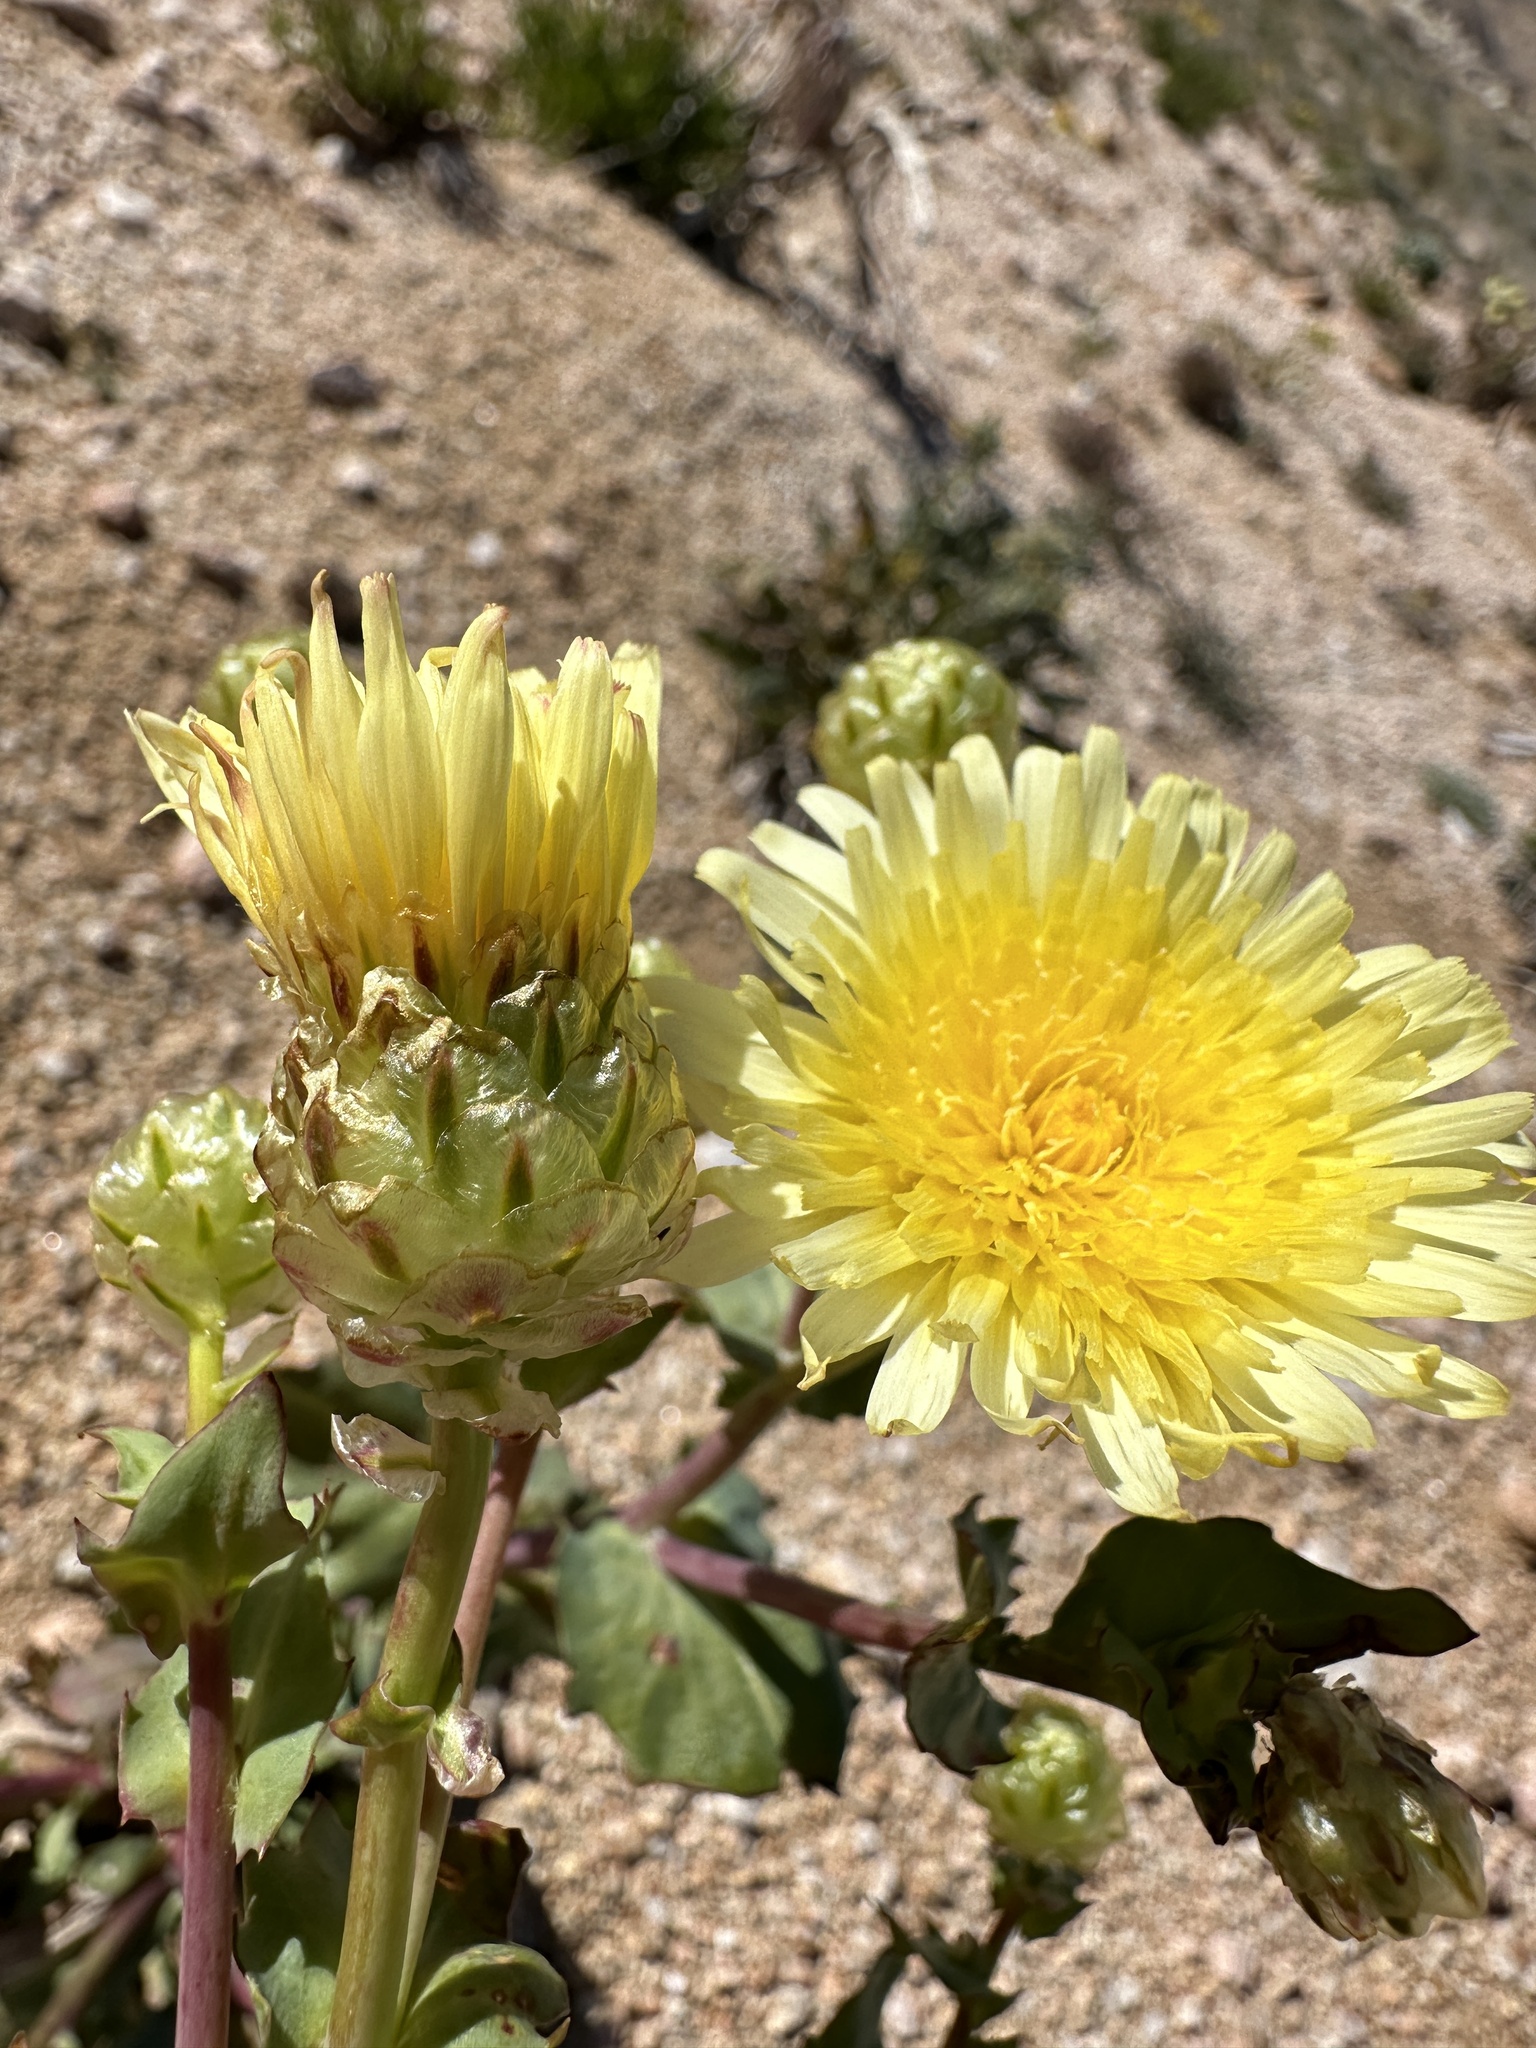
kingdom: Plantae
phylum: Tracheophyta
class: Magnoliopsida
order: Asterales
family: Asteraceae
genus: Malacothrix
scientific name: Malacothrix coulteri
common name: Snake's-head
